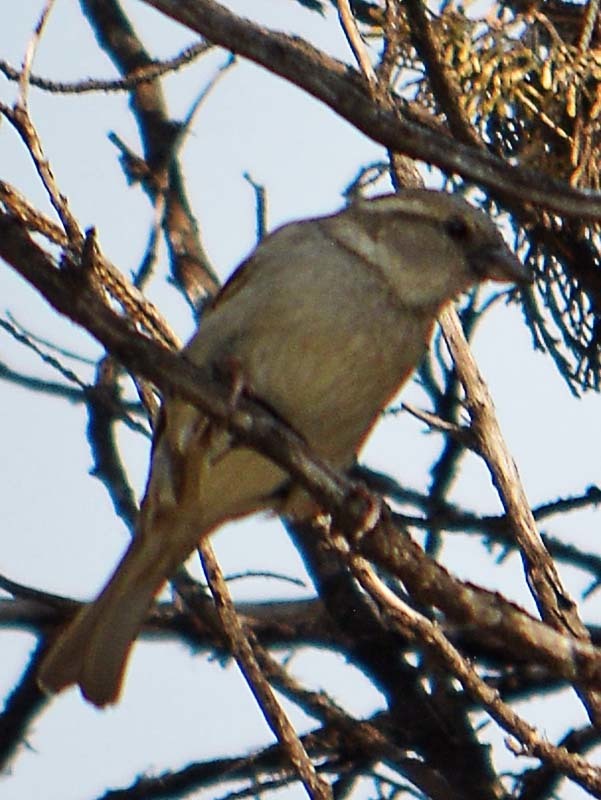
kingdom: Animalia
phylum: Chordata
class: Aves
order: Passeriformes
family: Passeridae
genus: Passer
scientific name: Passer domesticus
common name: House sparrow
